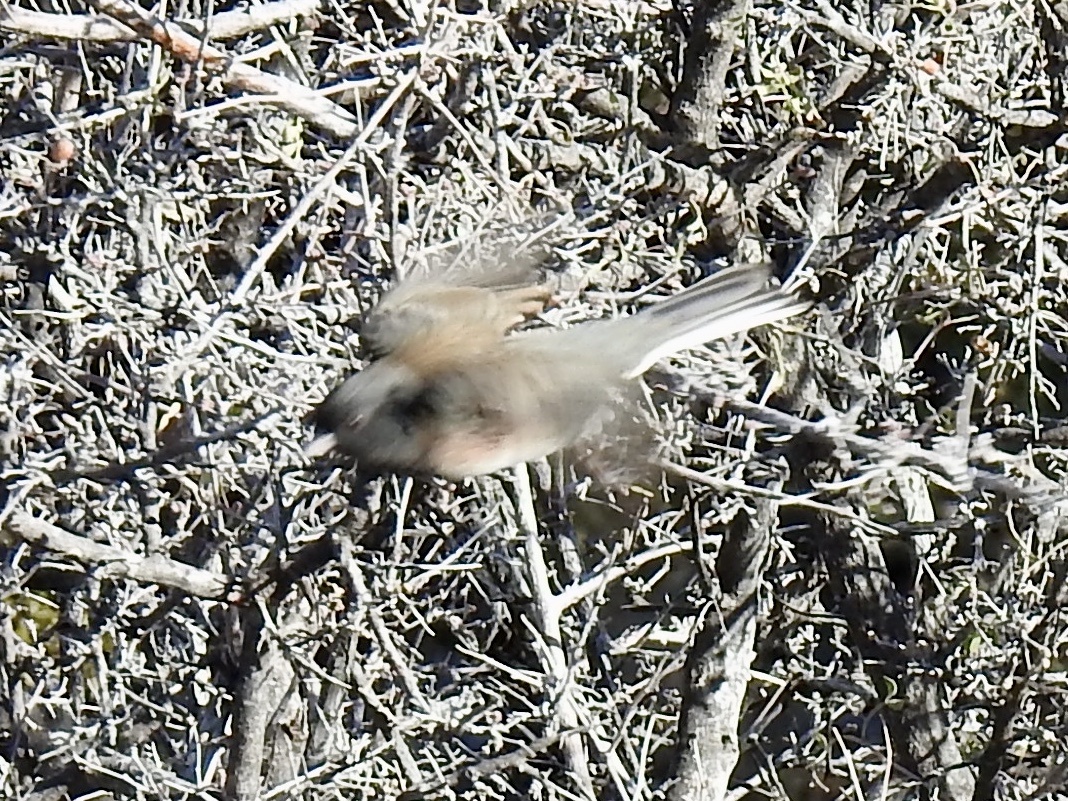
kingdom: Animalia
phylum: Chordata
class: Aves
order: Passeriformes
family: Passerellidae
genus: Junco
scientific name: Junco hyemalis
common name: Dark-eyed junco
